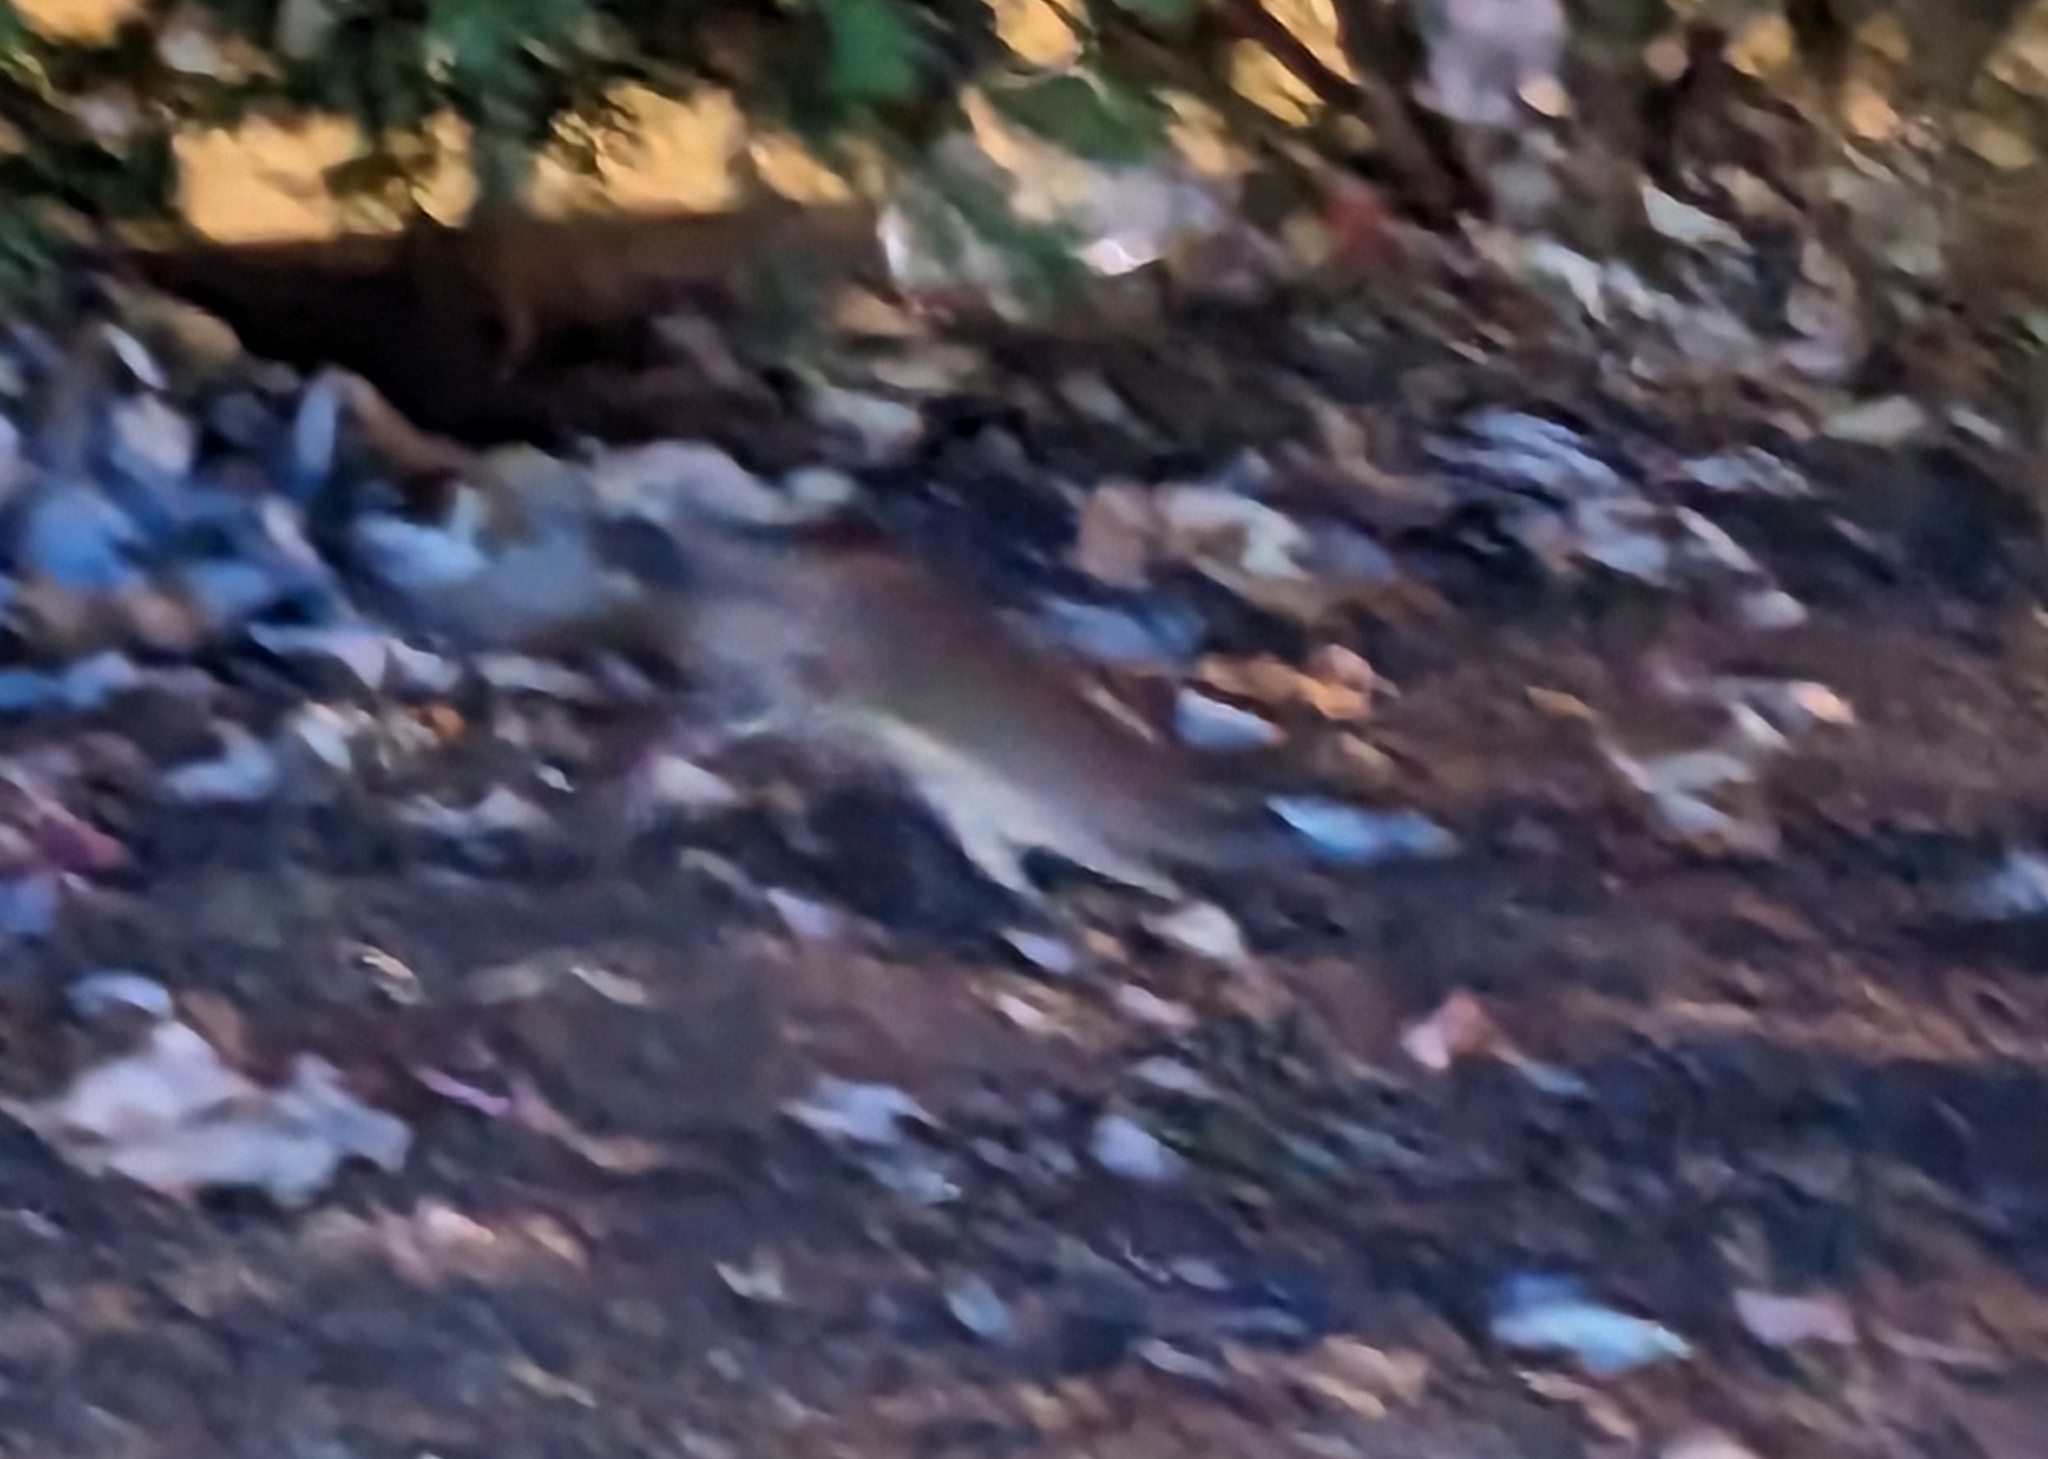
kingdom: Animalia
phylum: Chordata
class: Mammalia
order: Rodentia
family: Muridae
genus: Rattus
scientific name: Rattus norvegicus
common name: Brown rat
